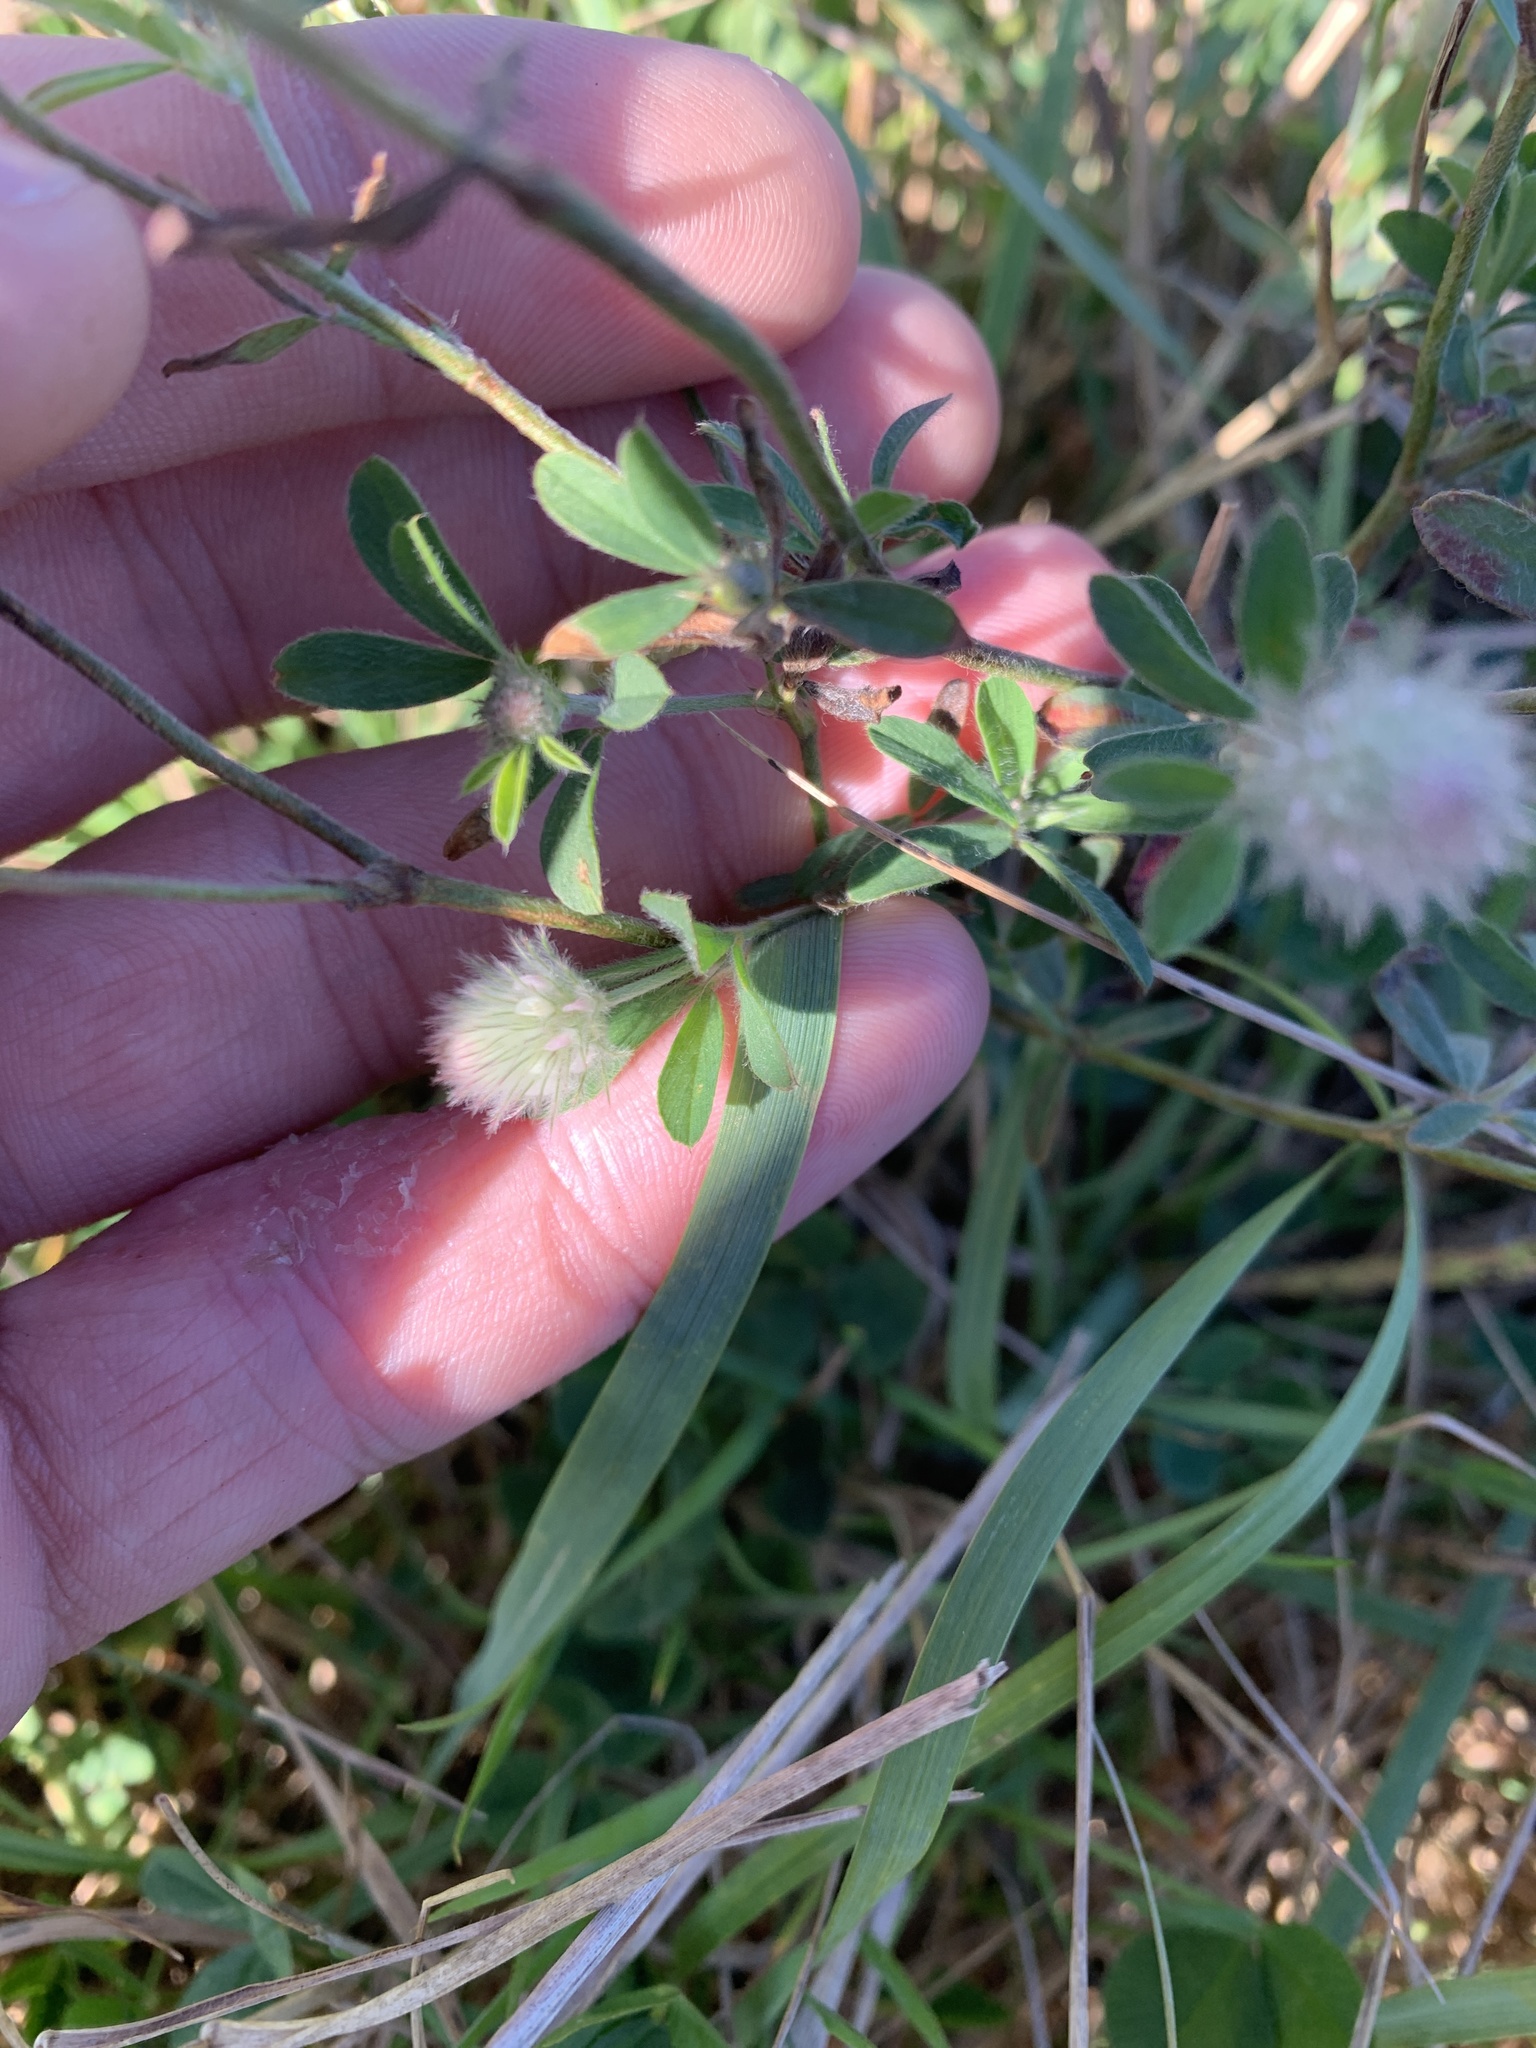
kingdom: Plantae
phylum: Tracheophyta
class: Magnoliopsida
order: Fabales
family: Fabaceae
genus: Trifolium
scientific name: Trifolium arvense
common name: Hare's-foot clover
